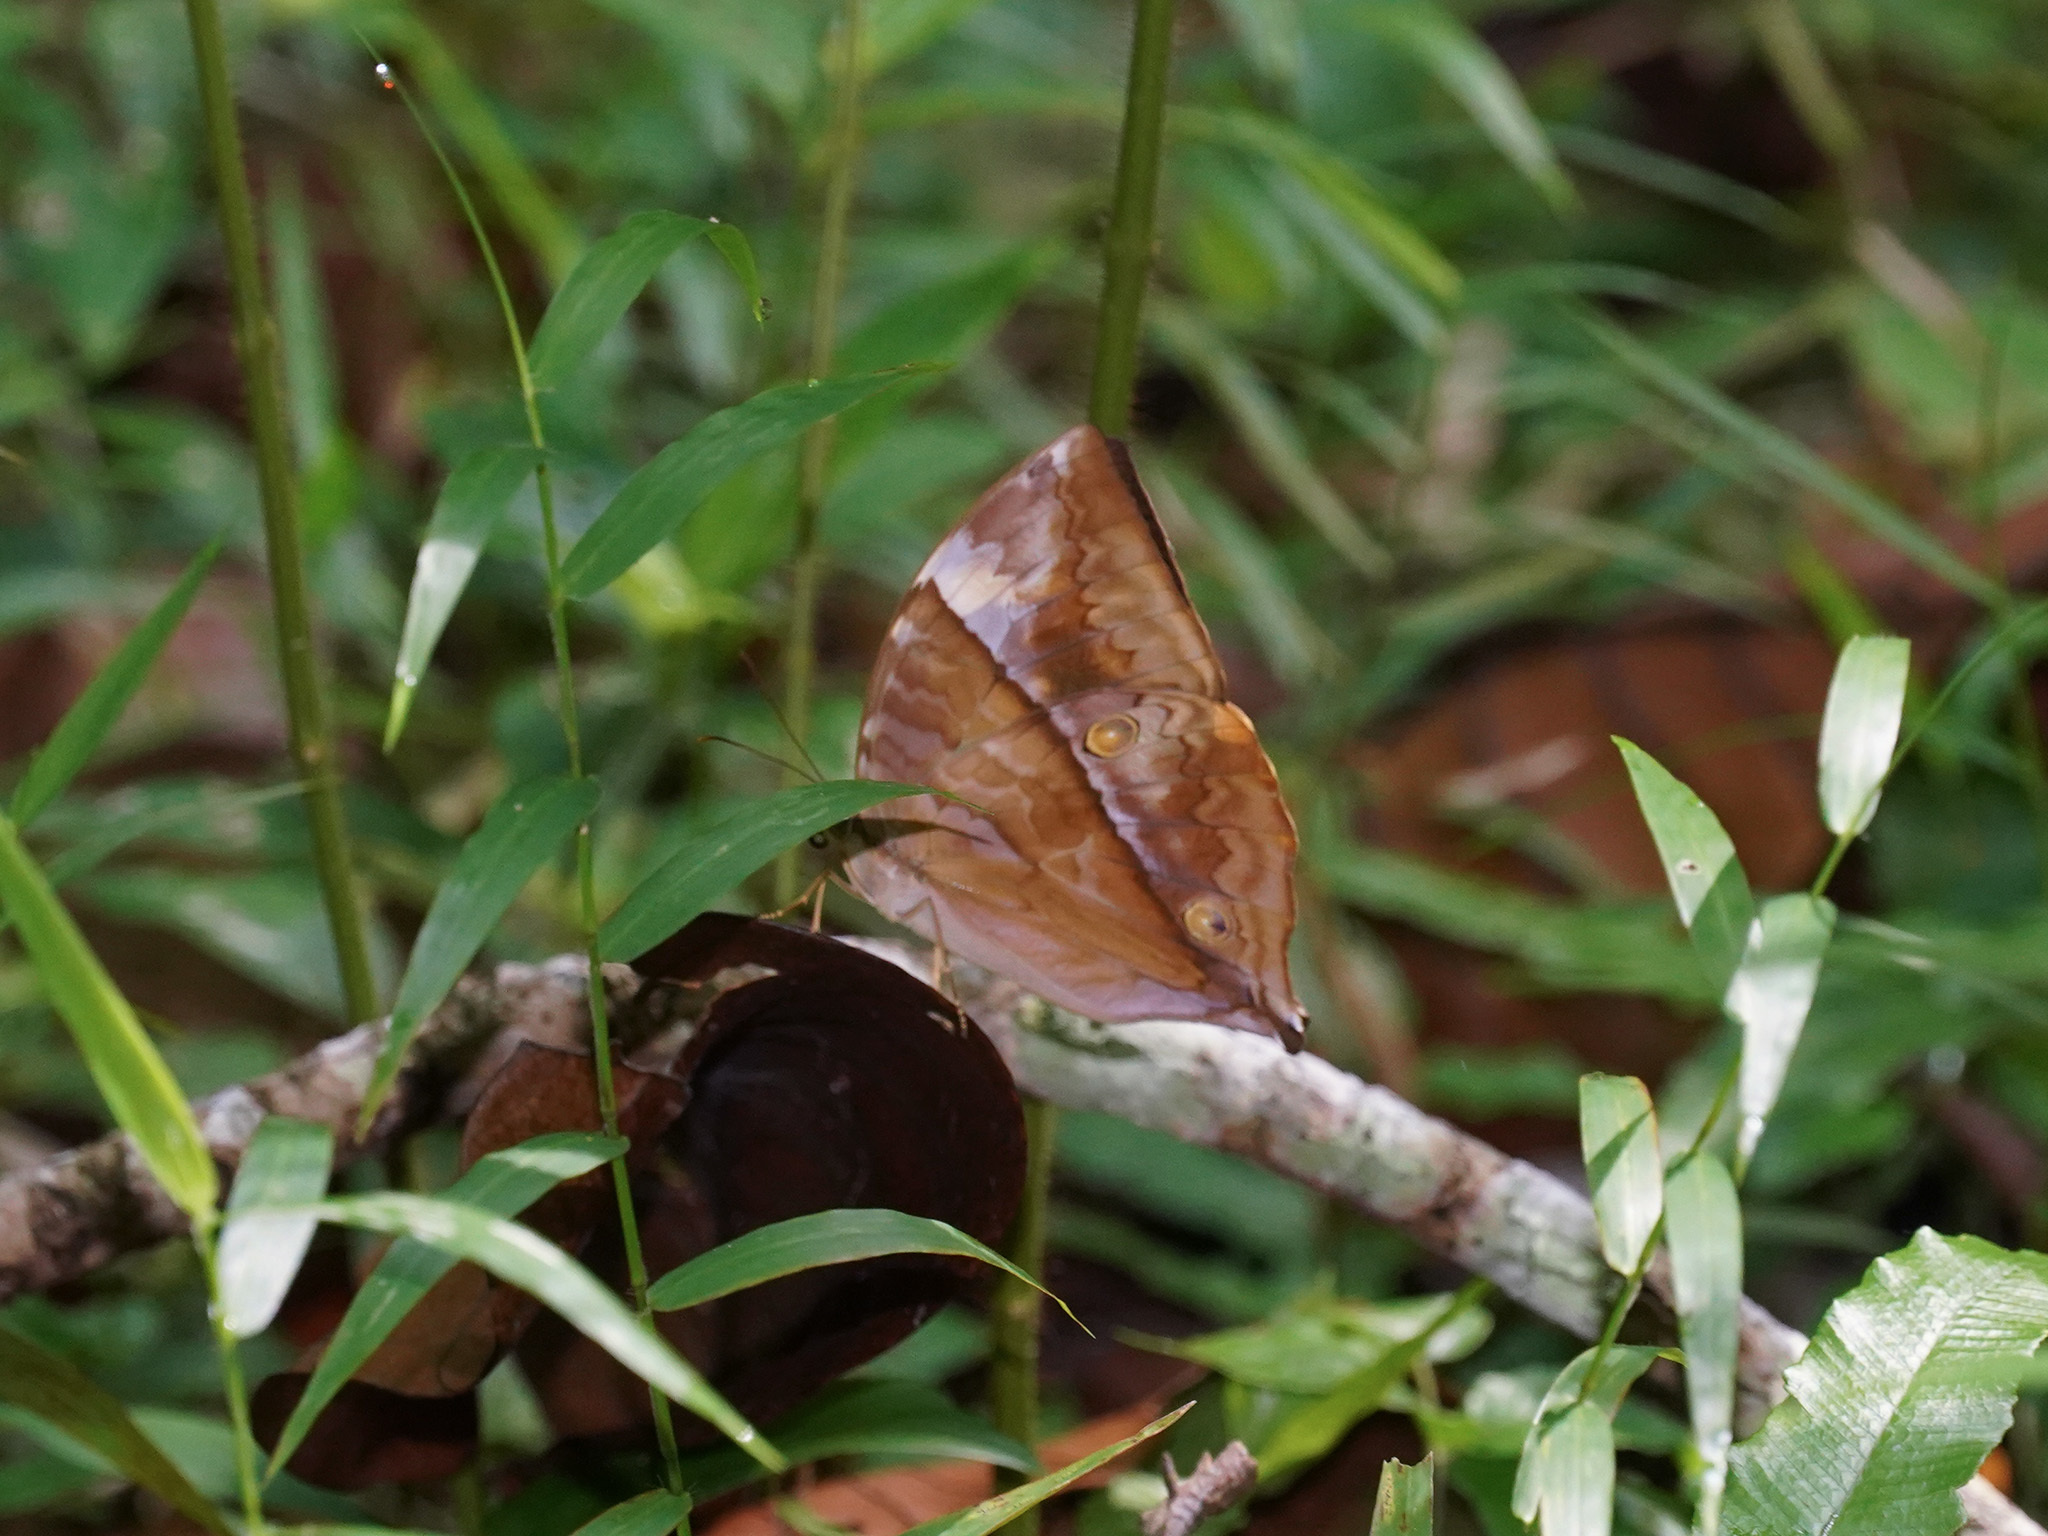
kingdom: Animalia
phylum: Arthropoda
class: Insecta
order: Lepidoptera
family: Nymphalidae
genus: Zeuxidia
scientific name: Zeuxidia amethysta
